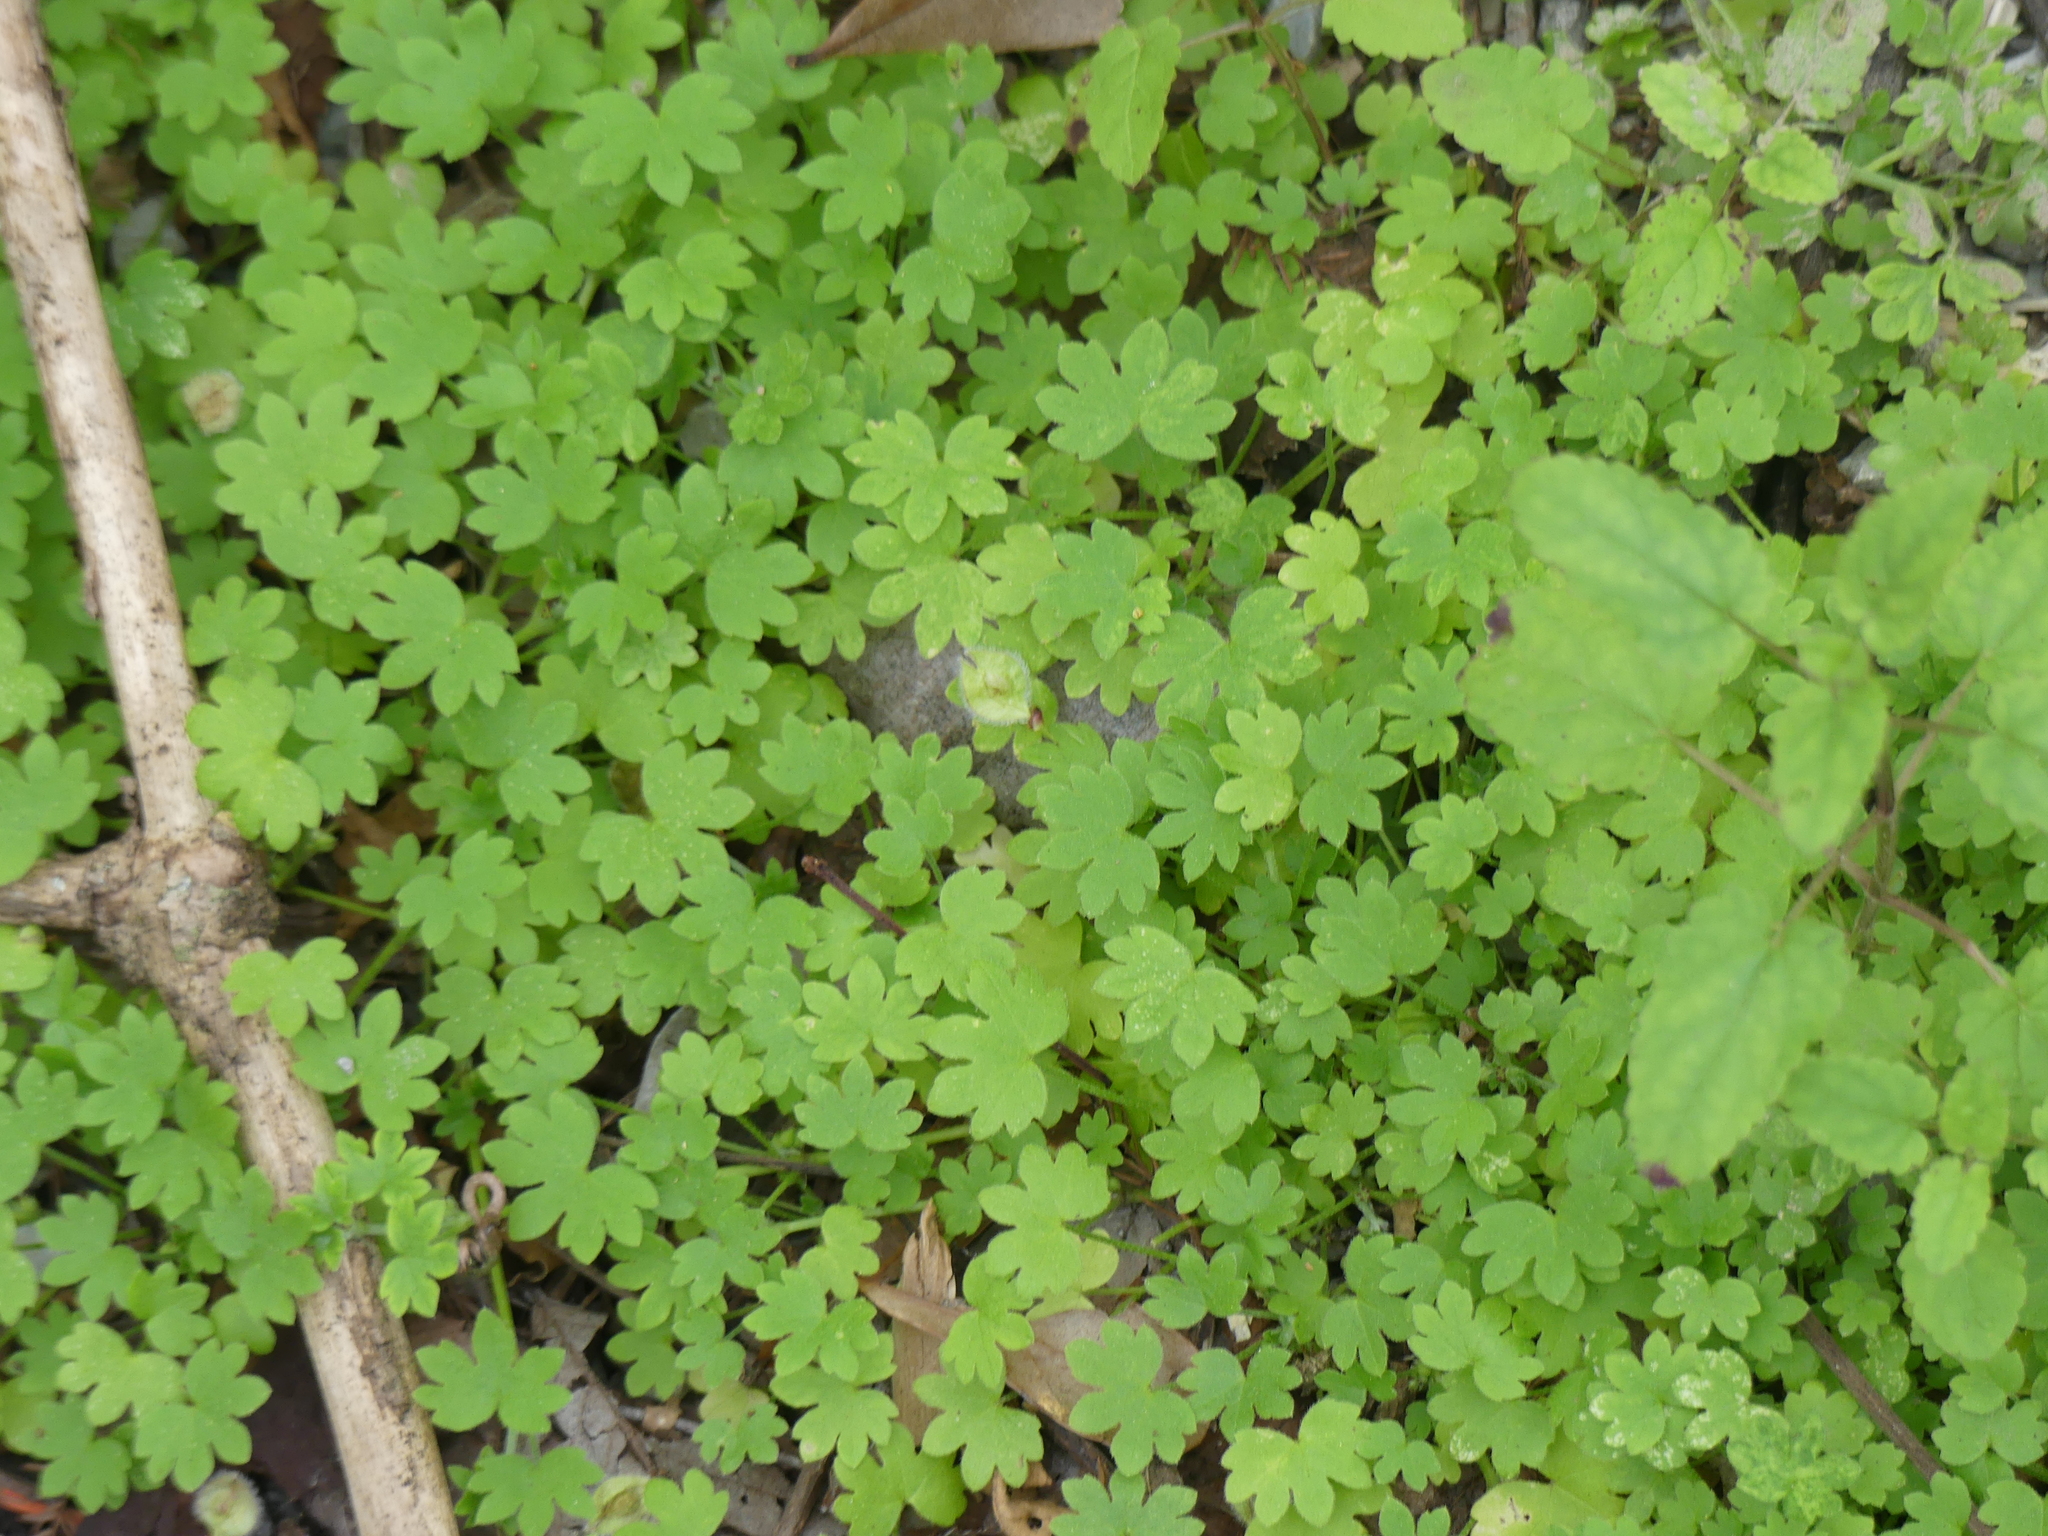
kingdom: Plantae
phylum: Tracheophyta
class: Magnoliopsida
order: Apiales
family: Apiaceae
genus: Bowlesia
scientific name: Bowlesia incana
